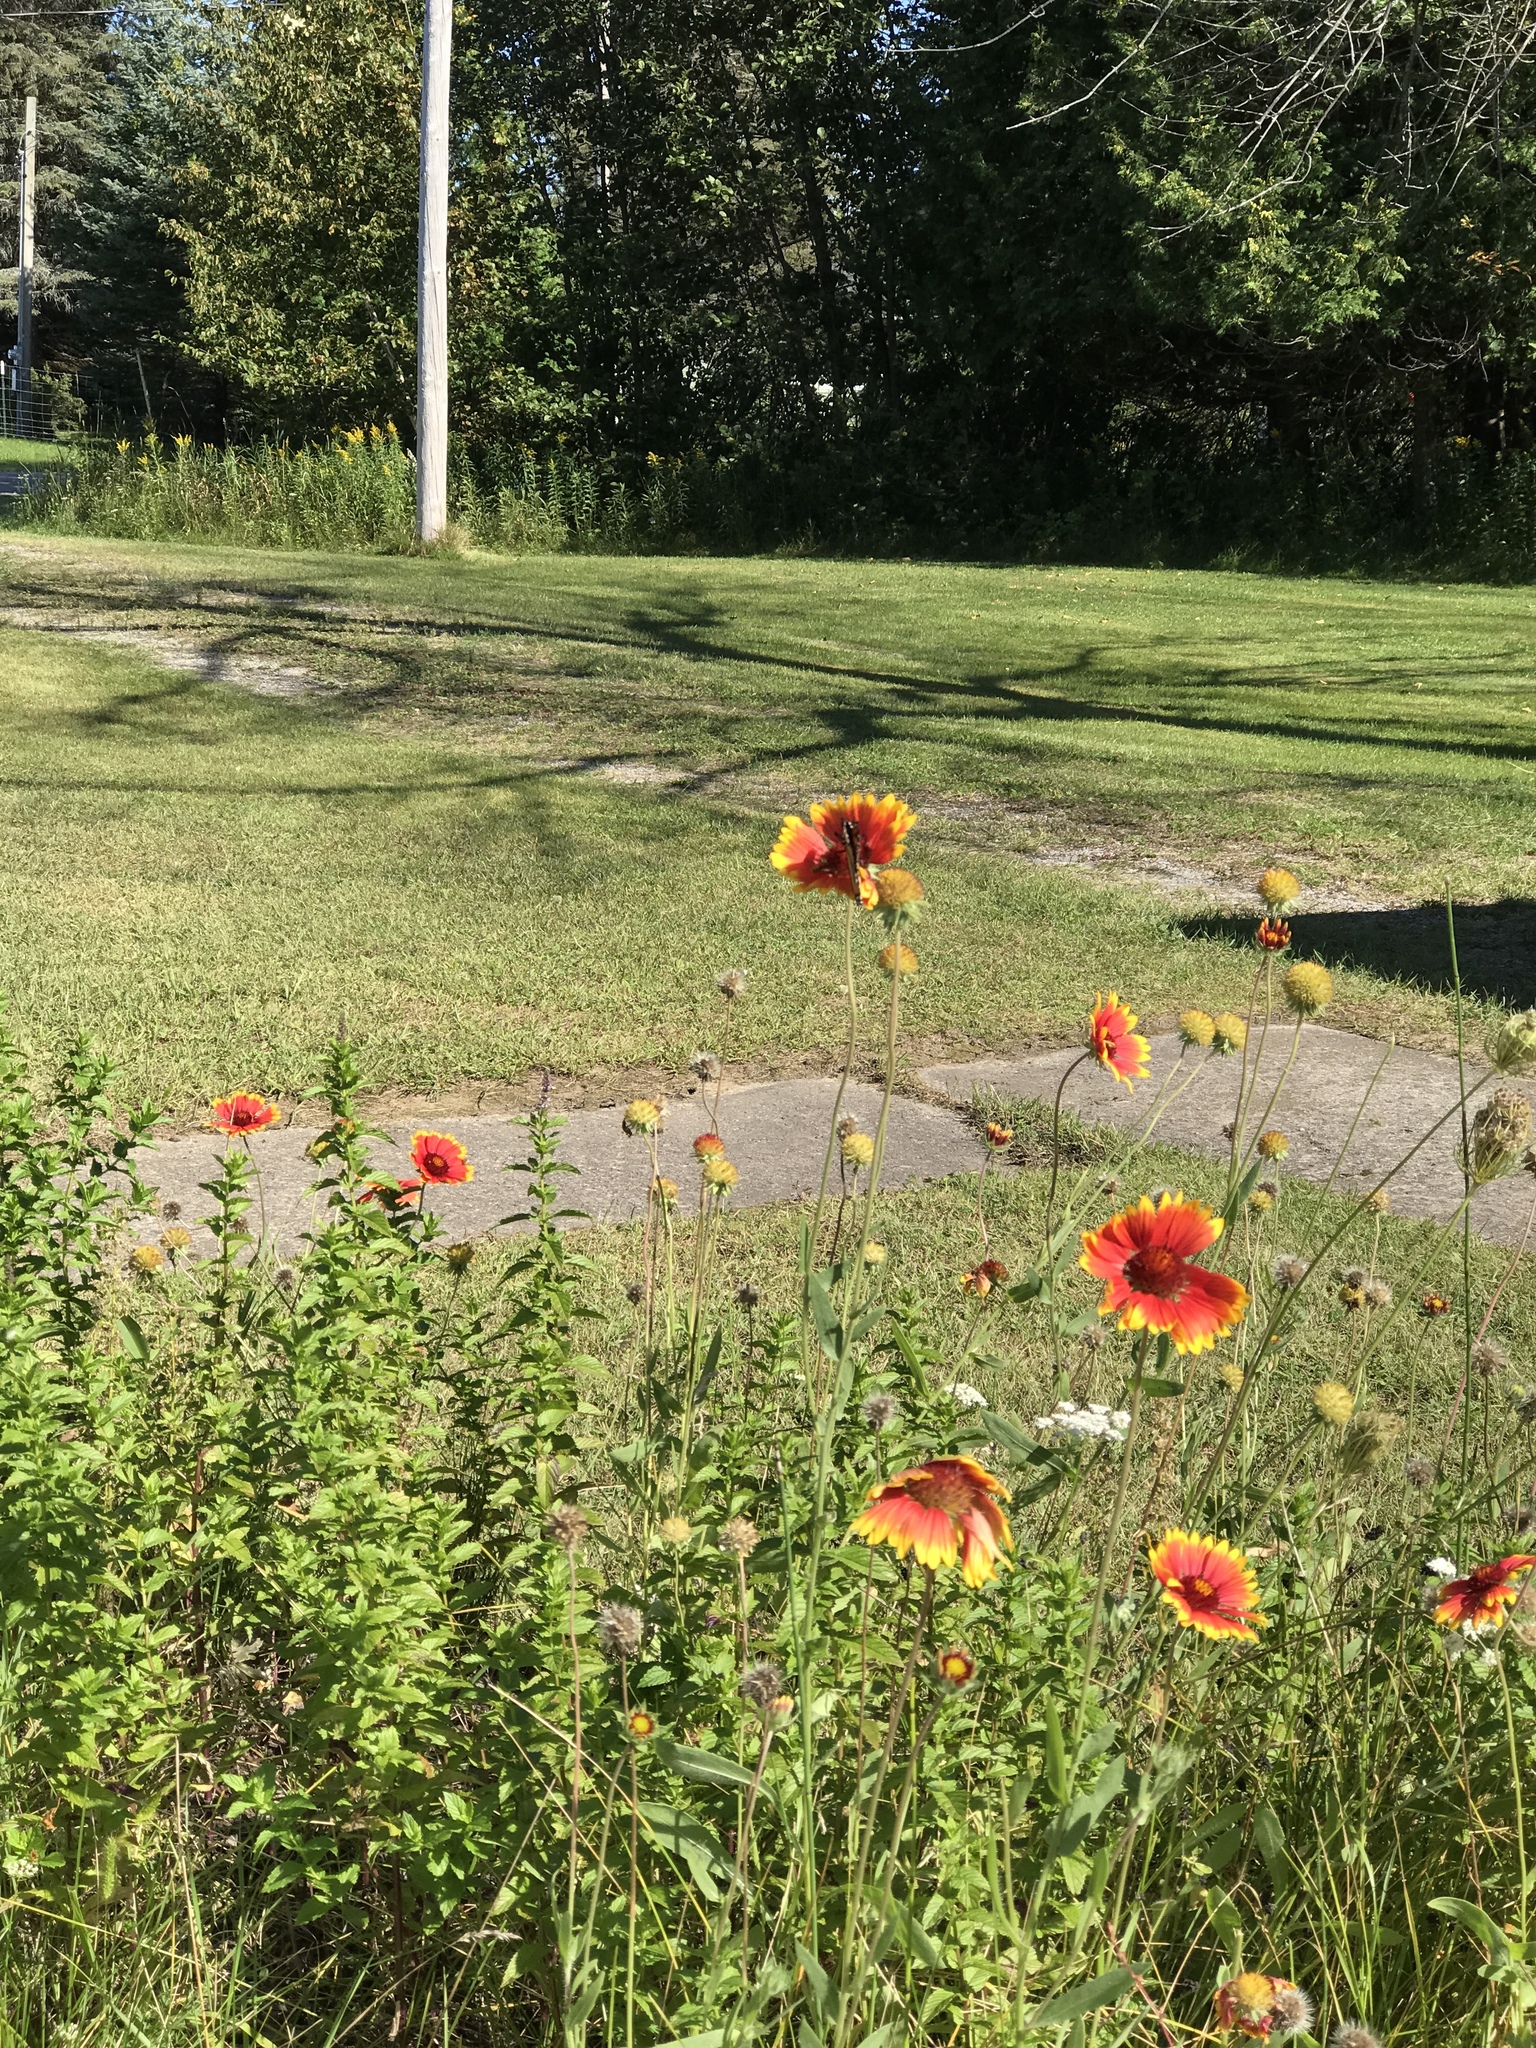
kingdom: Plantae
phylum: Tracheophyta
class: Magnoliopsida
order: Asterales
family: Asteraceae
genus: Gaillardia
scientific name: Gaillardia pulchella
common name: Firewheel
